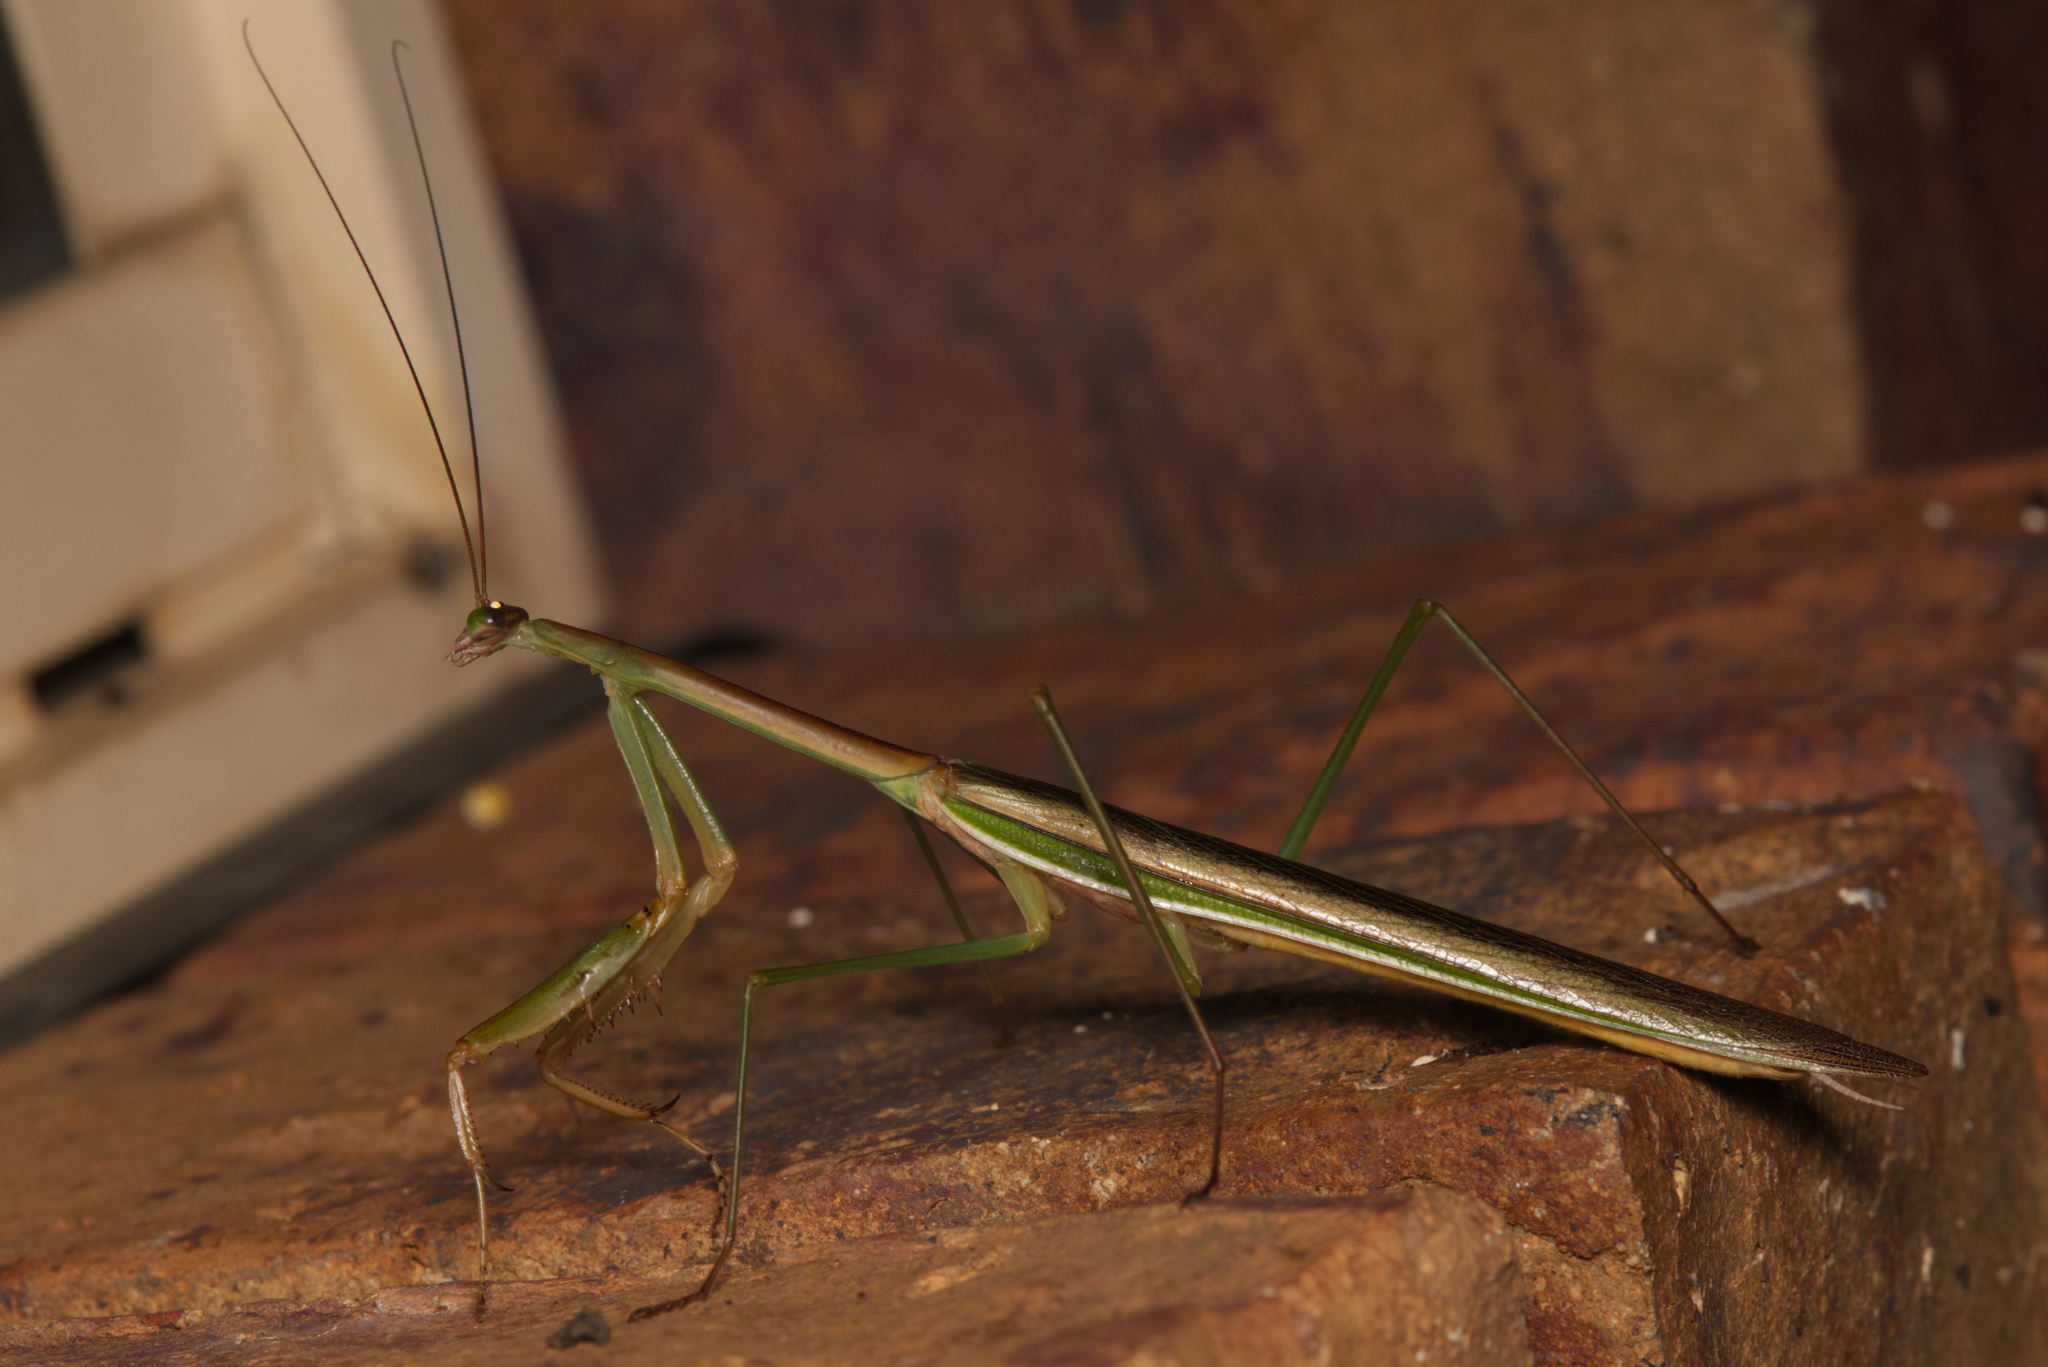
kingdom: Animalia
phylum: Arthropoda
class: Insecta
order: Mantodea
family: Mantidae
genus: Tenodera
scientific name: Tenodera australasiae
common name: Purple-winged mantis
